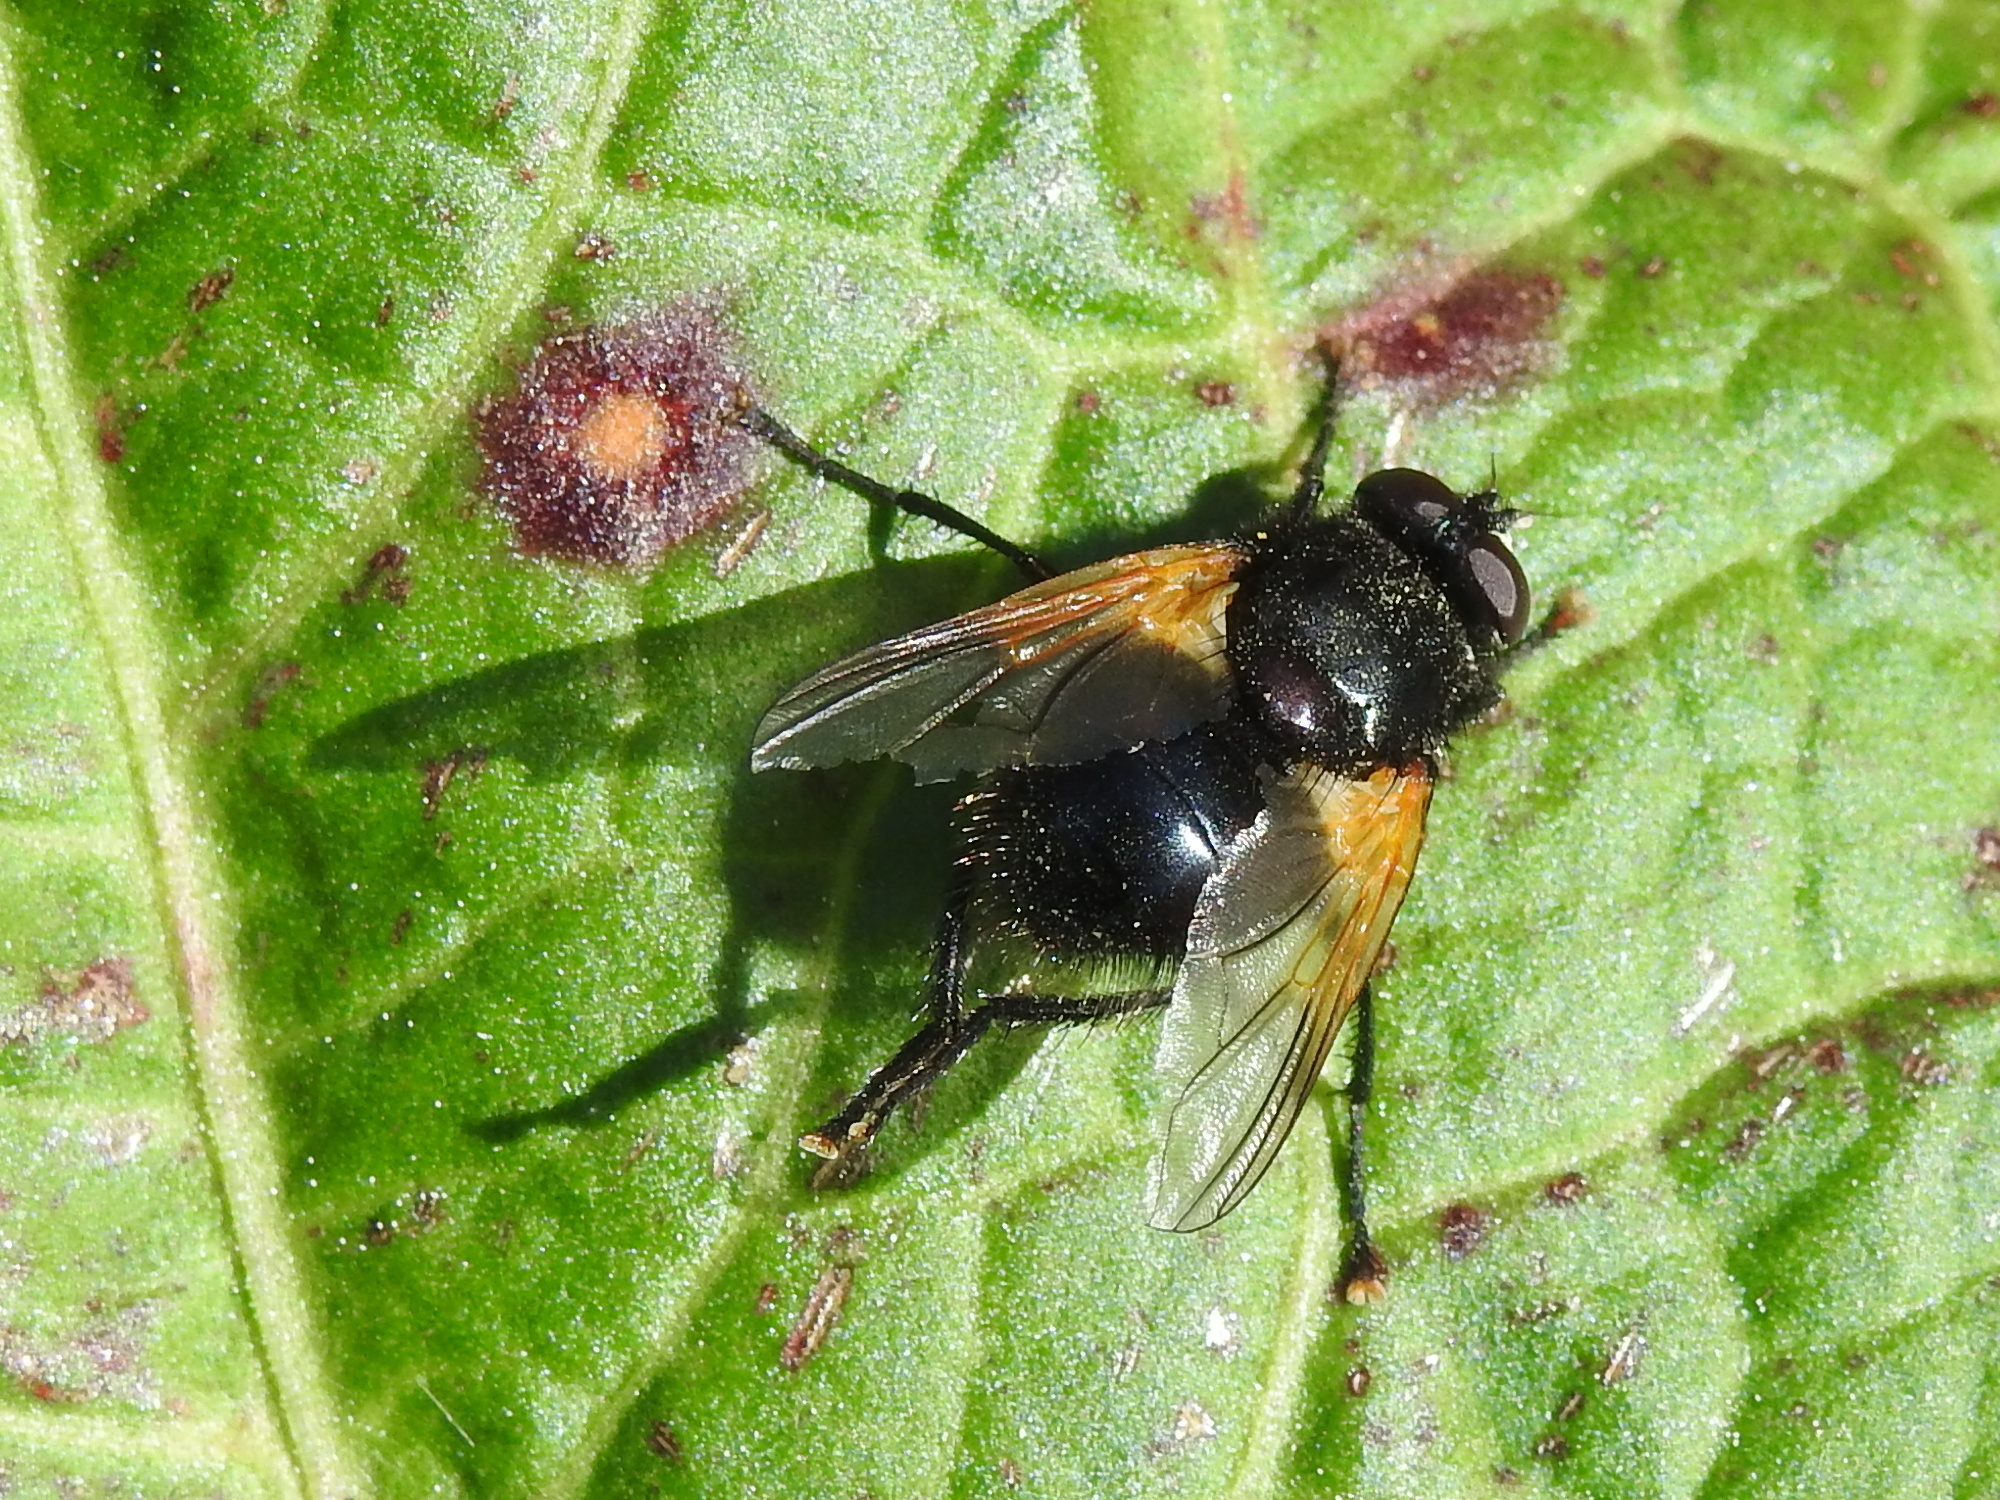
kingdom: Animalia
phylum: Arthropoda
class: Insecta
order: Diptera
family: Muscidae
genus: Mesembrina
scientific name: Mesembrina meridiana
